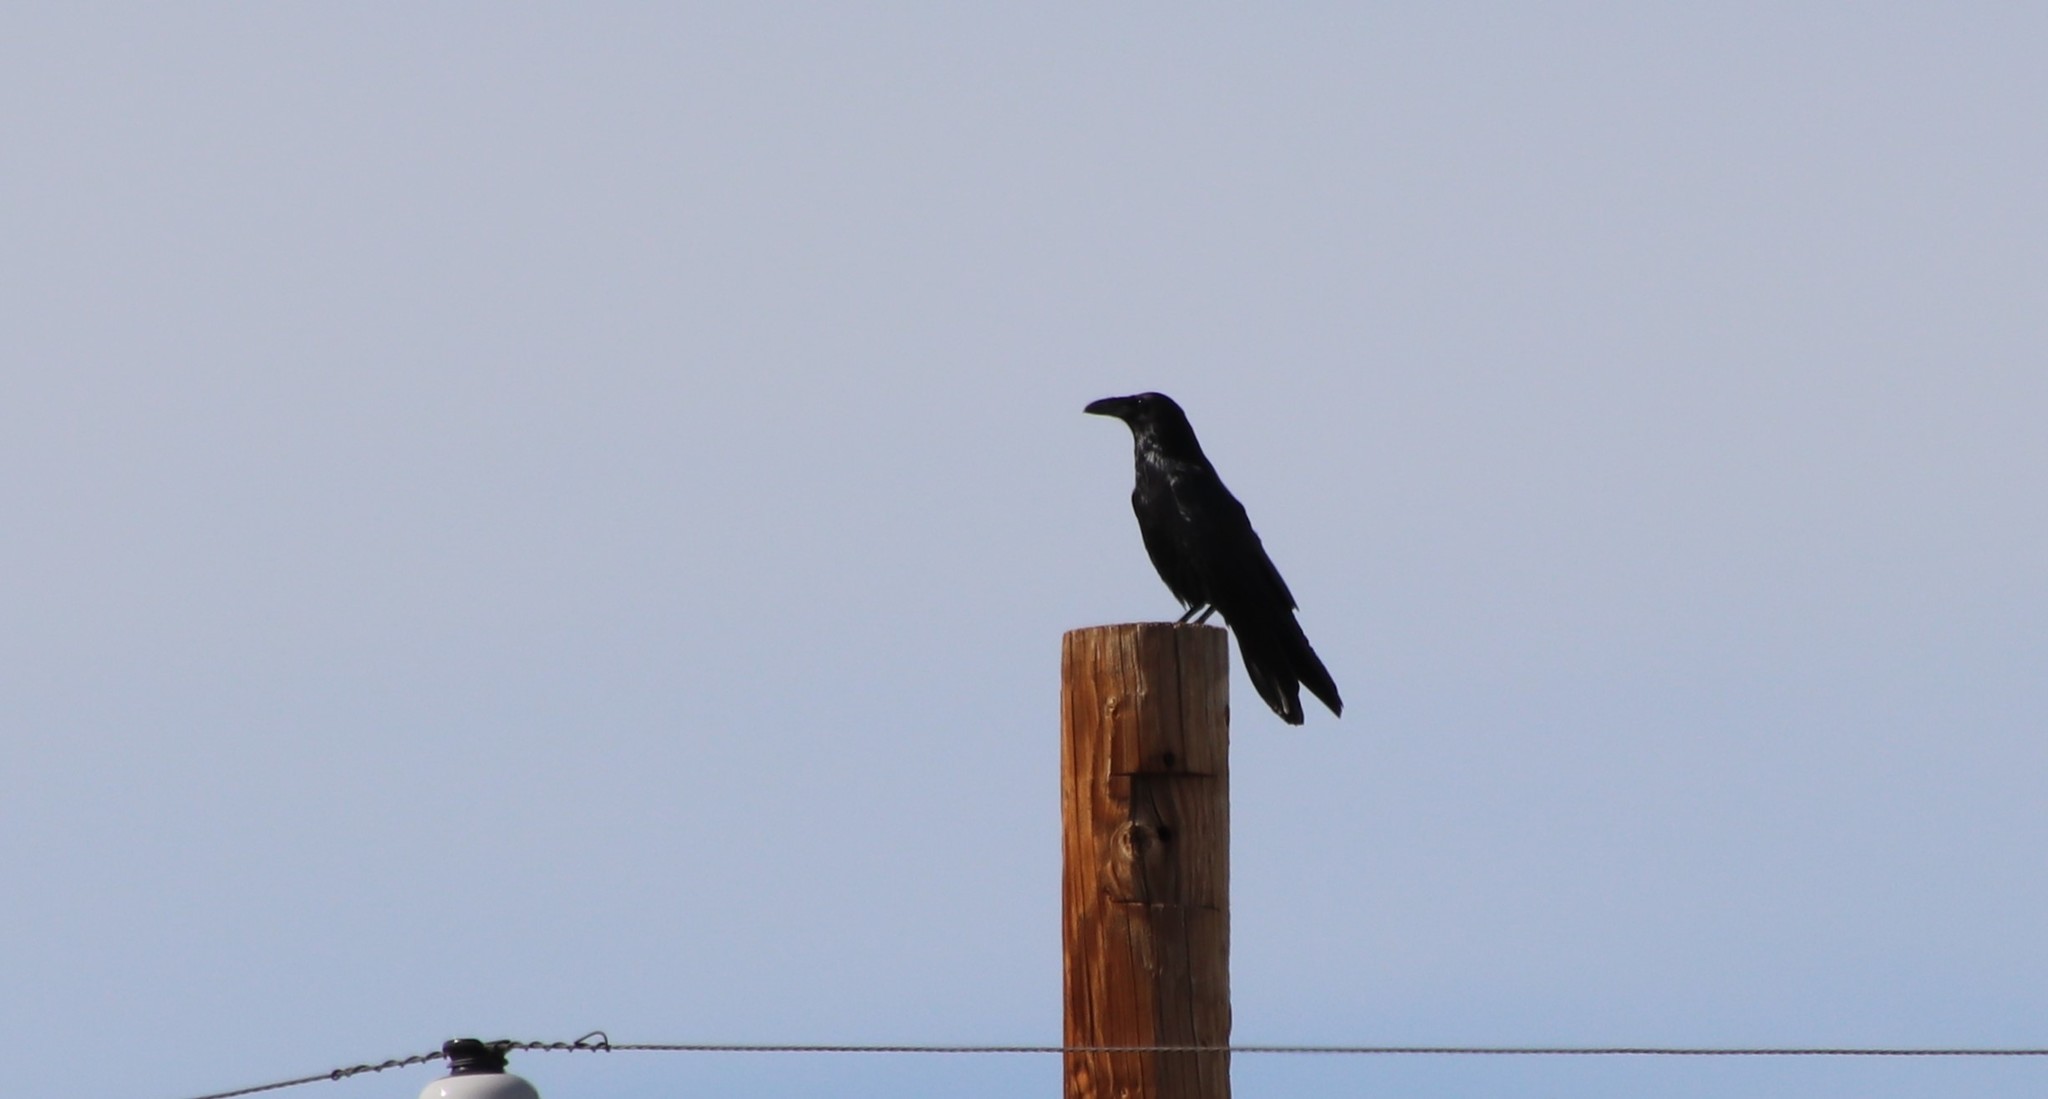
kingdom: Animalia
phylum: Chordata
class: Aves
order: Passeriformes
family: Corvidae
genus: Corvus
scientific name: Corvus corax
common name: Common raven
